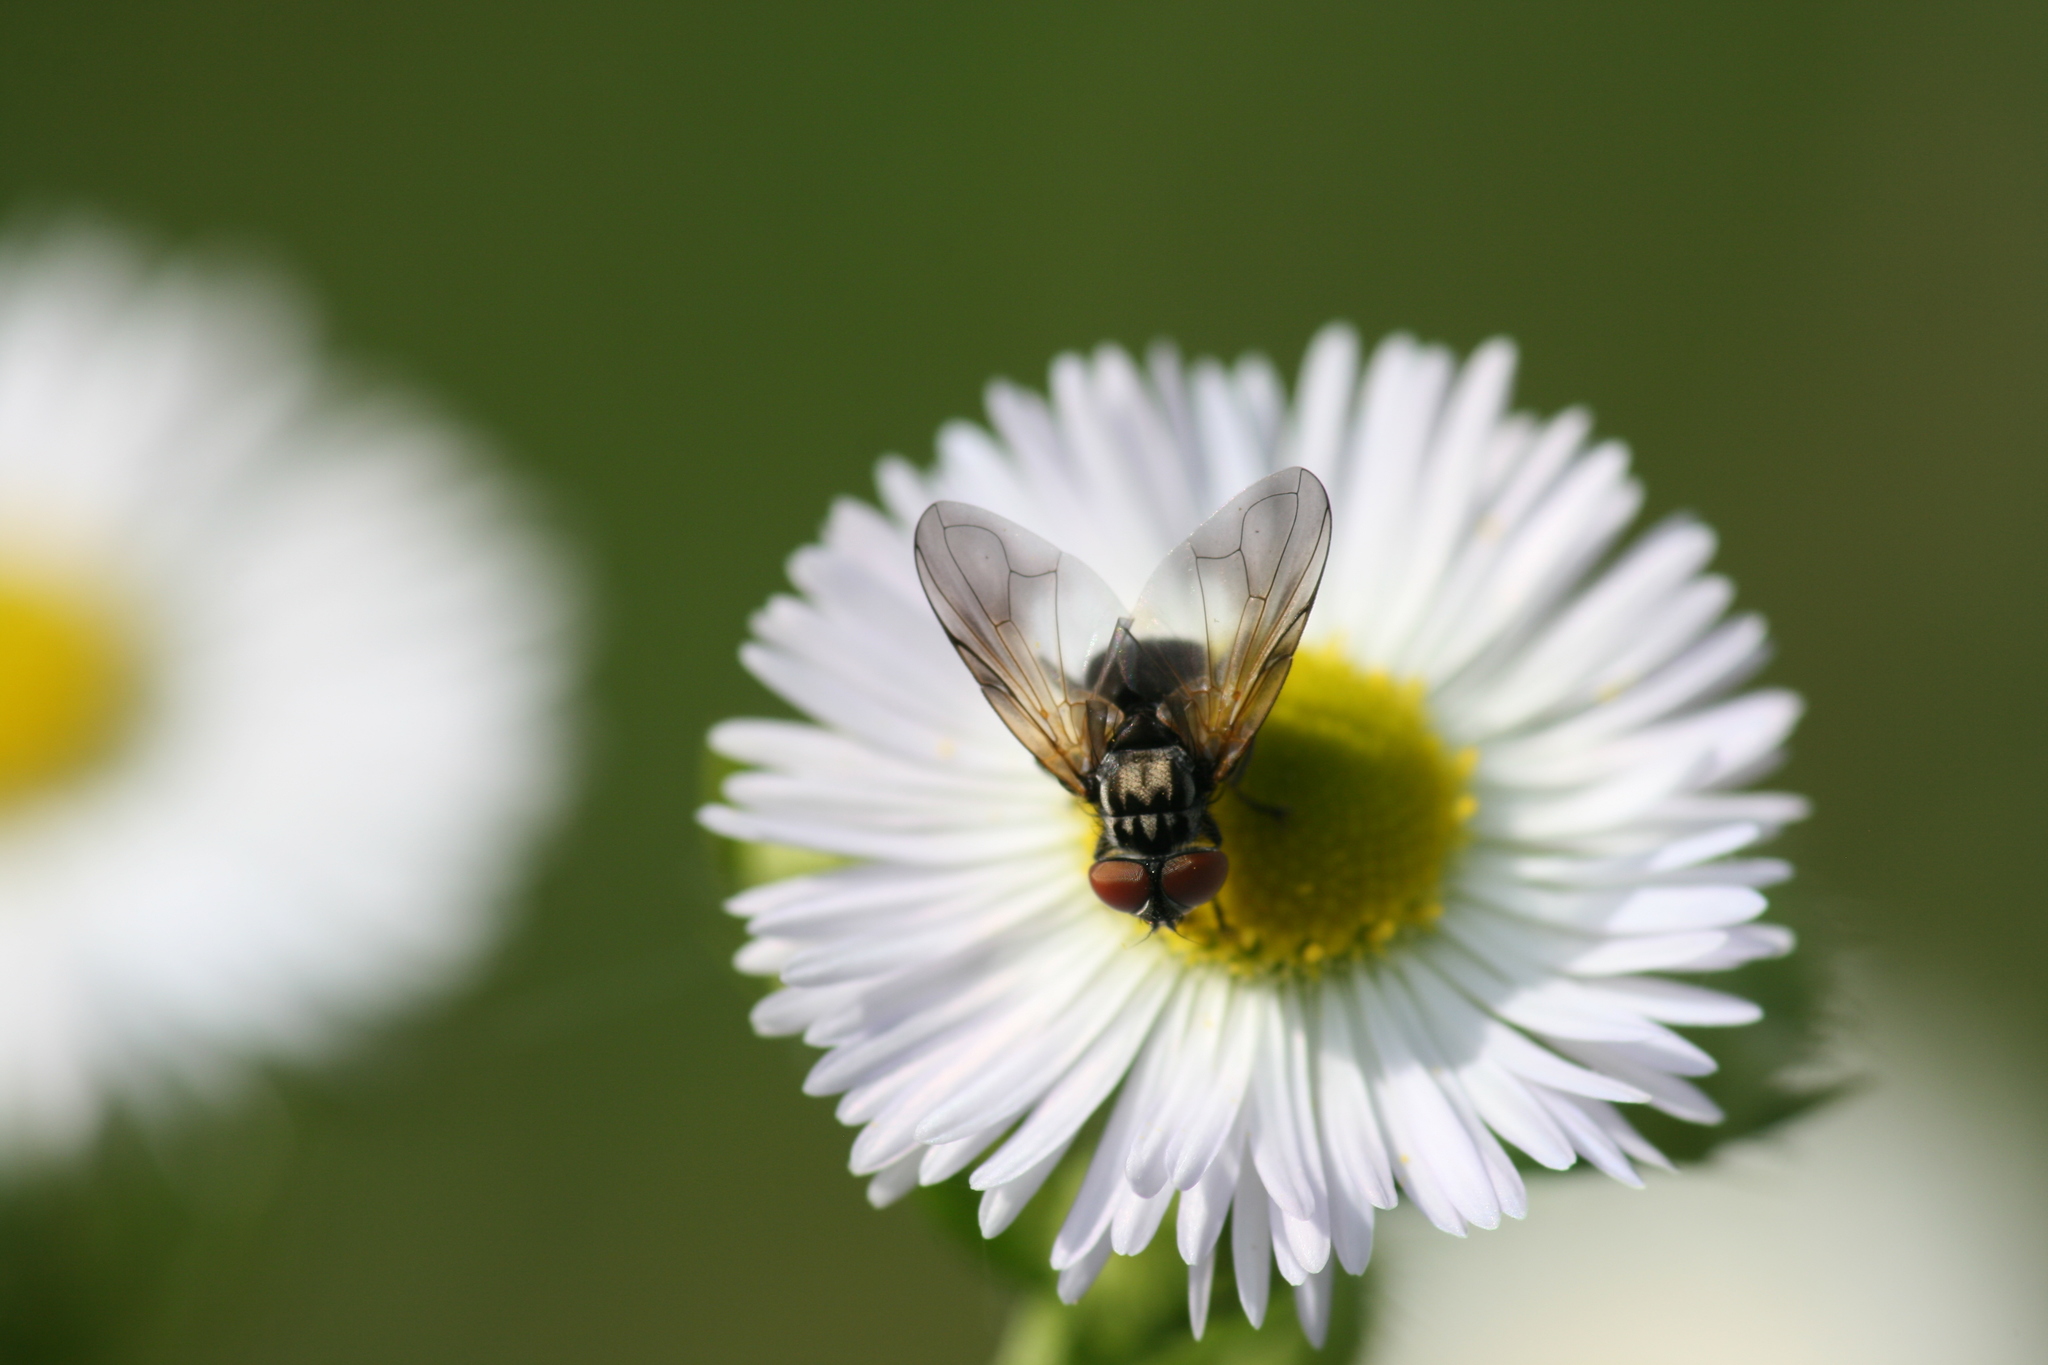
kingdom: Animalia
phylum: Arthropoda
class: Insecta
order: Diptera
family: Tachinidae
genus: Phasia
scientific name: Phasia obesa
